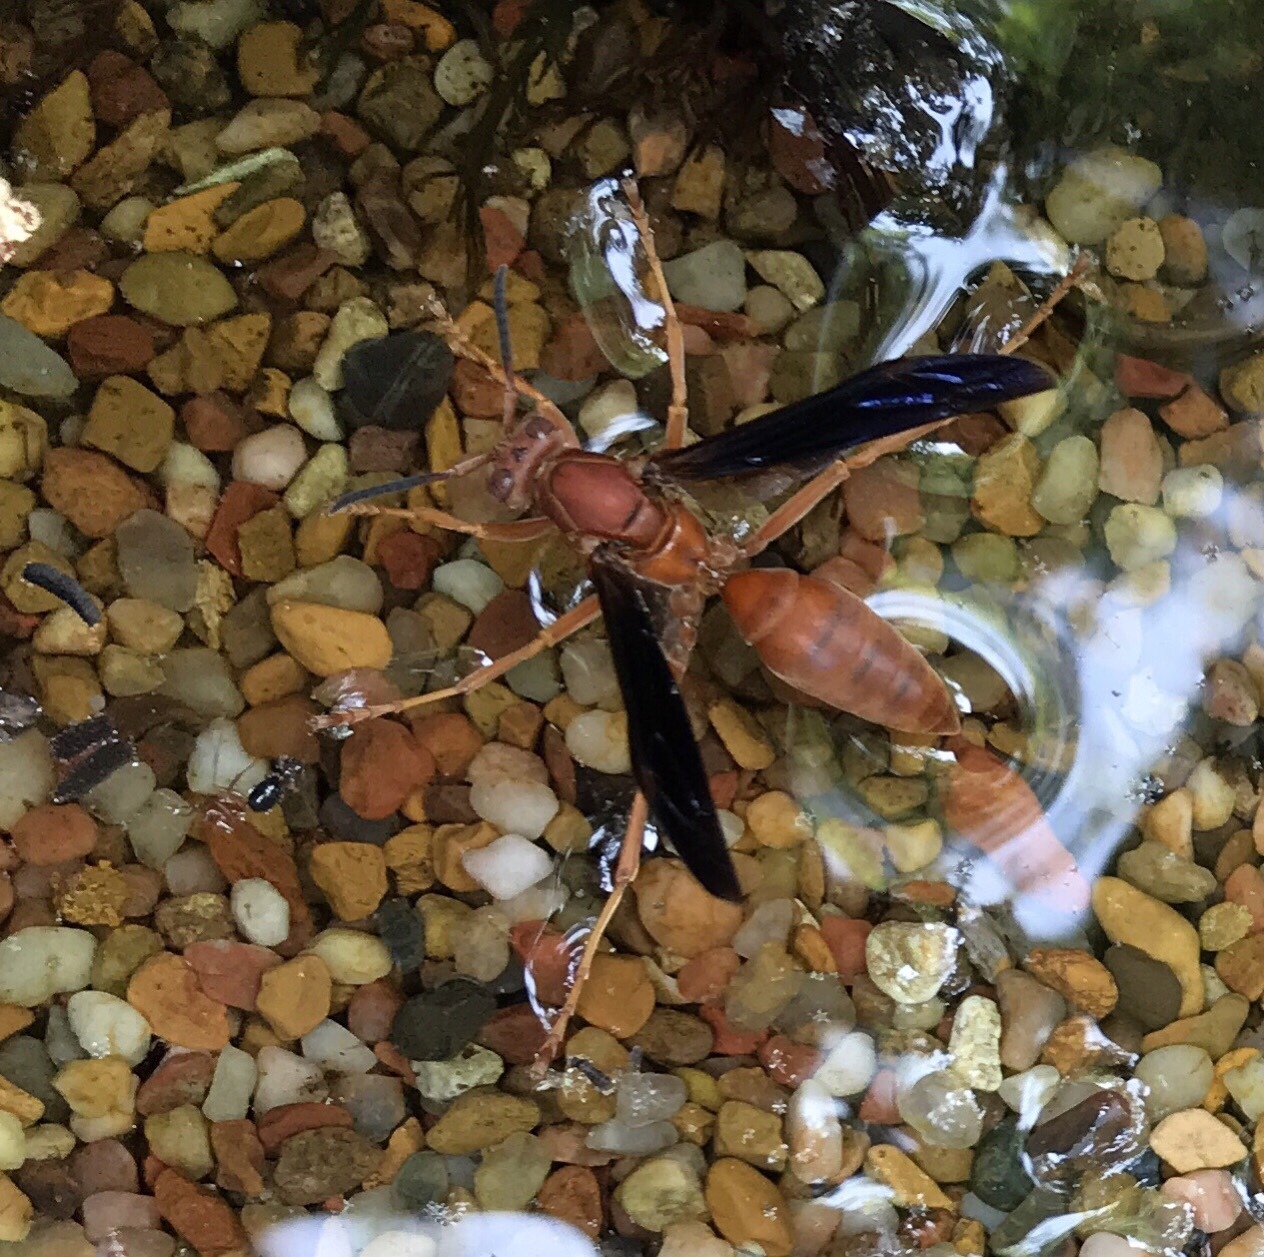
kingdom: Animalia
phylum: Arthropoda
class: Insecta
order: Hymenoptera
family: Vespidae
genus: Fuscopolistes
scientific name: Fuscopolistes
